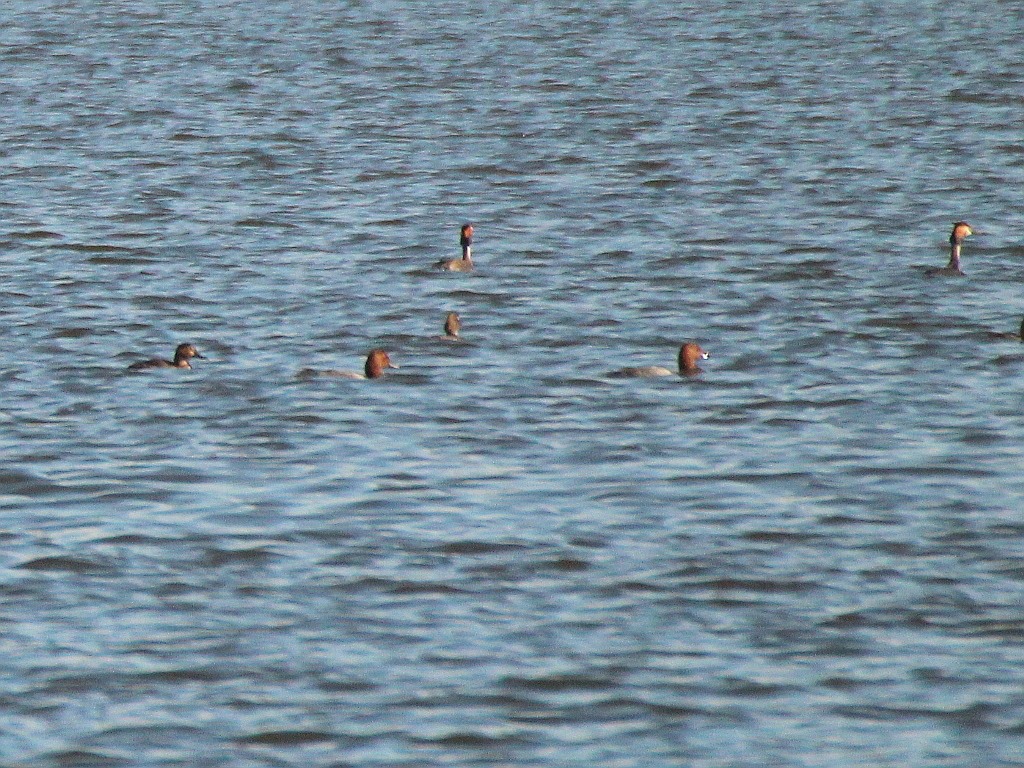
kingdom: Animalia
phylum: Chordata
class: Aves
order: Anseriformes
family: Anatidae
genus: Aythya
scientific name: Aythya ferina
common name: Common pochard
